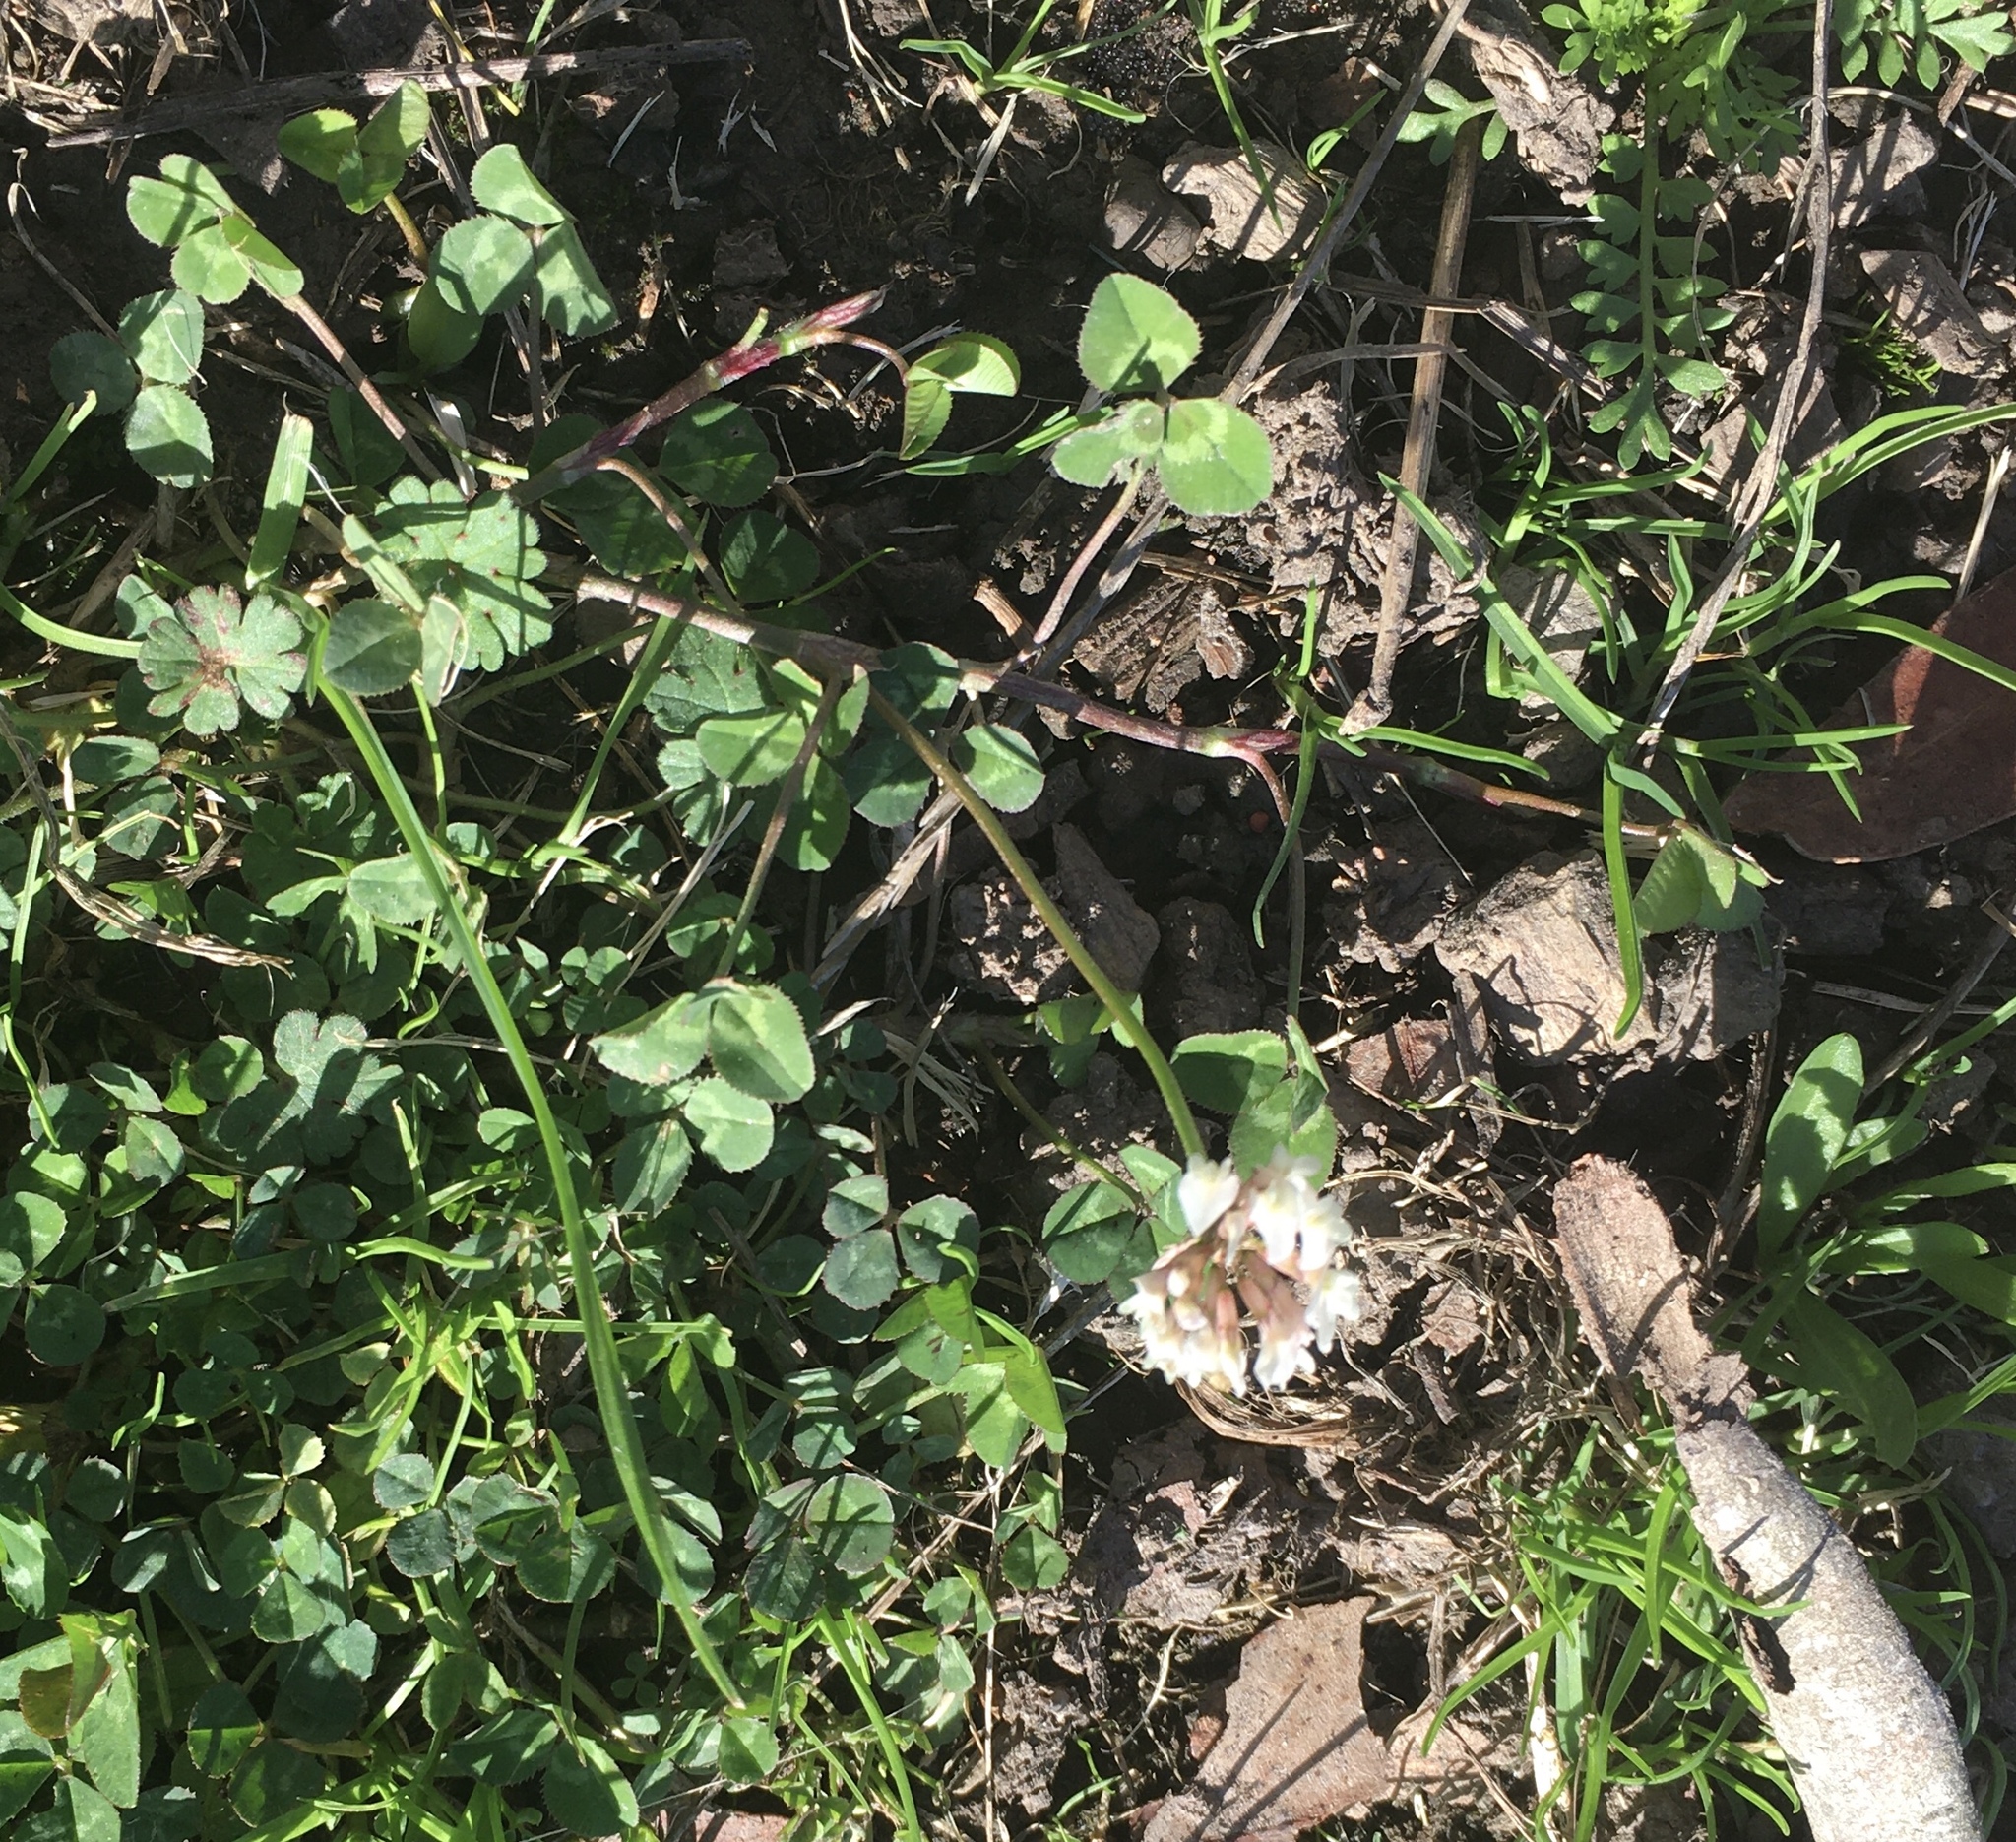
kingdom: Plantae
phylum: Tracheophyta
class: Magnoliopsida
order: Fabales
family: Fabaceae
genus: Trifolium
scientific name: Trifolium repens
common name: White clover
